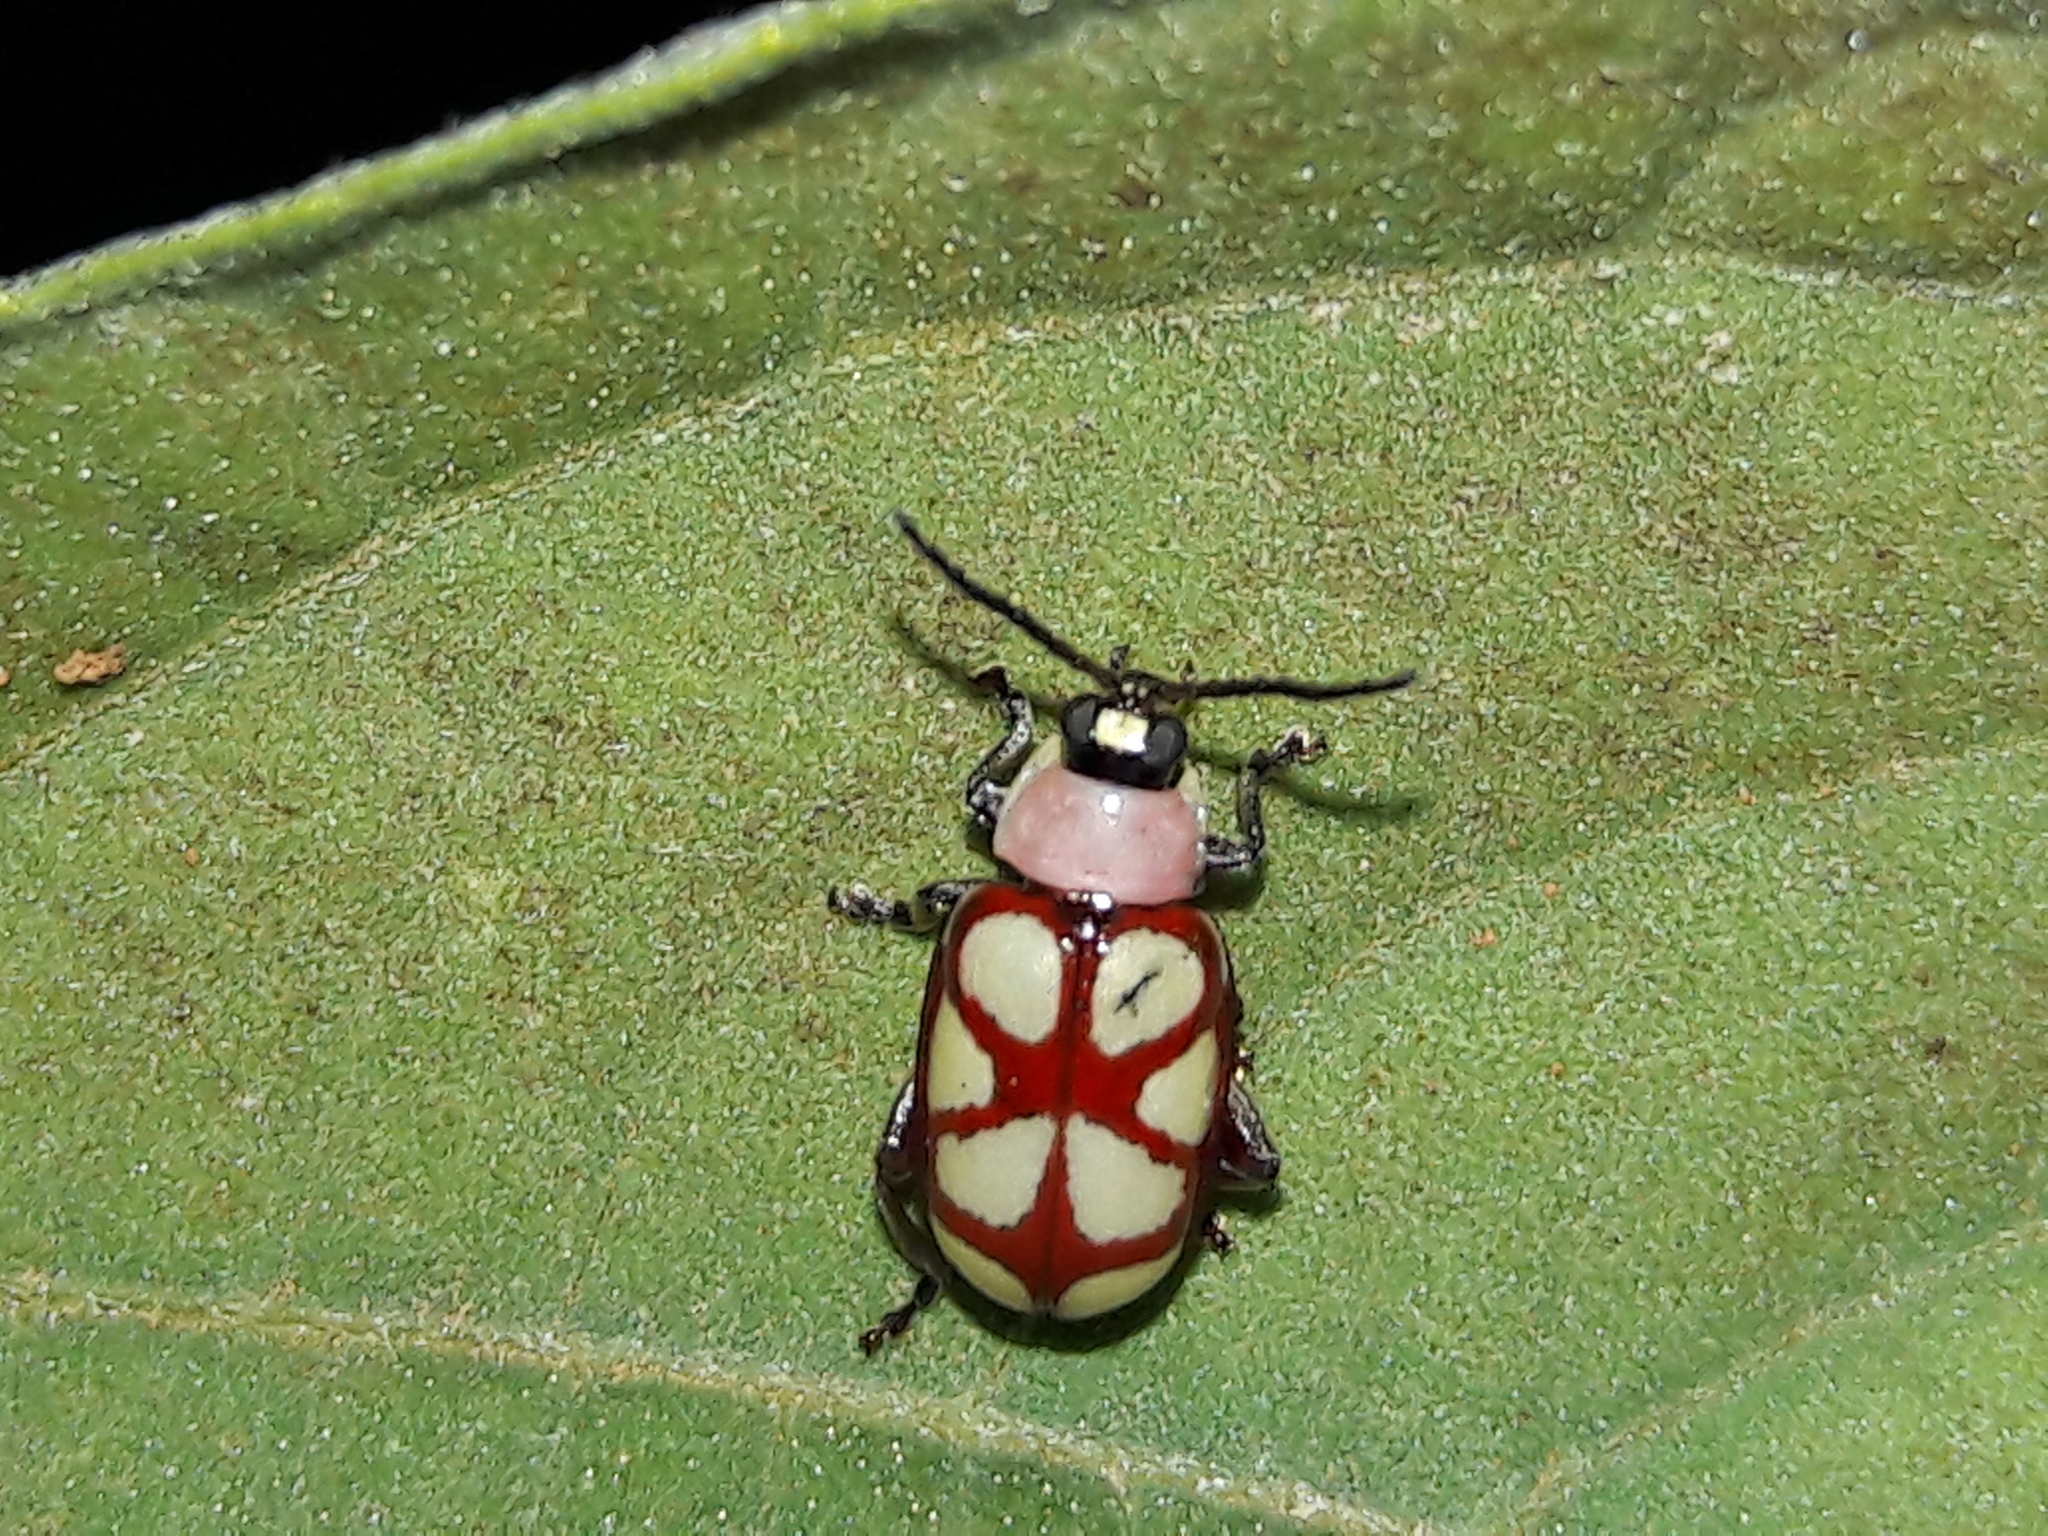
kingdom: Animalia
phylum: Arthropoda
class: Insecta
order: Coleoptera
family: Chrysomelidae
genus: Omophoita
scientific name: Omophoita
